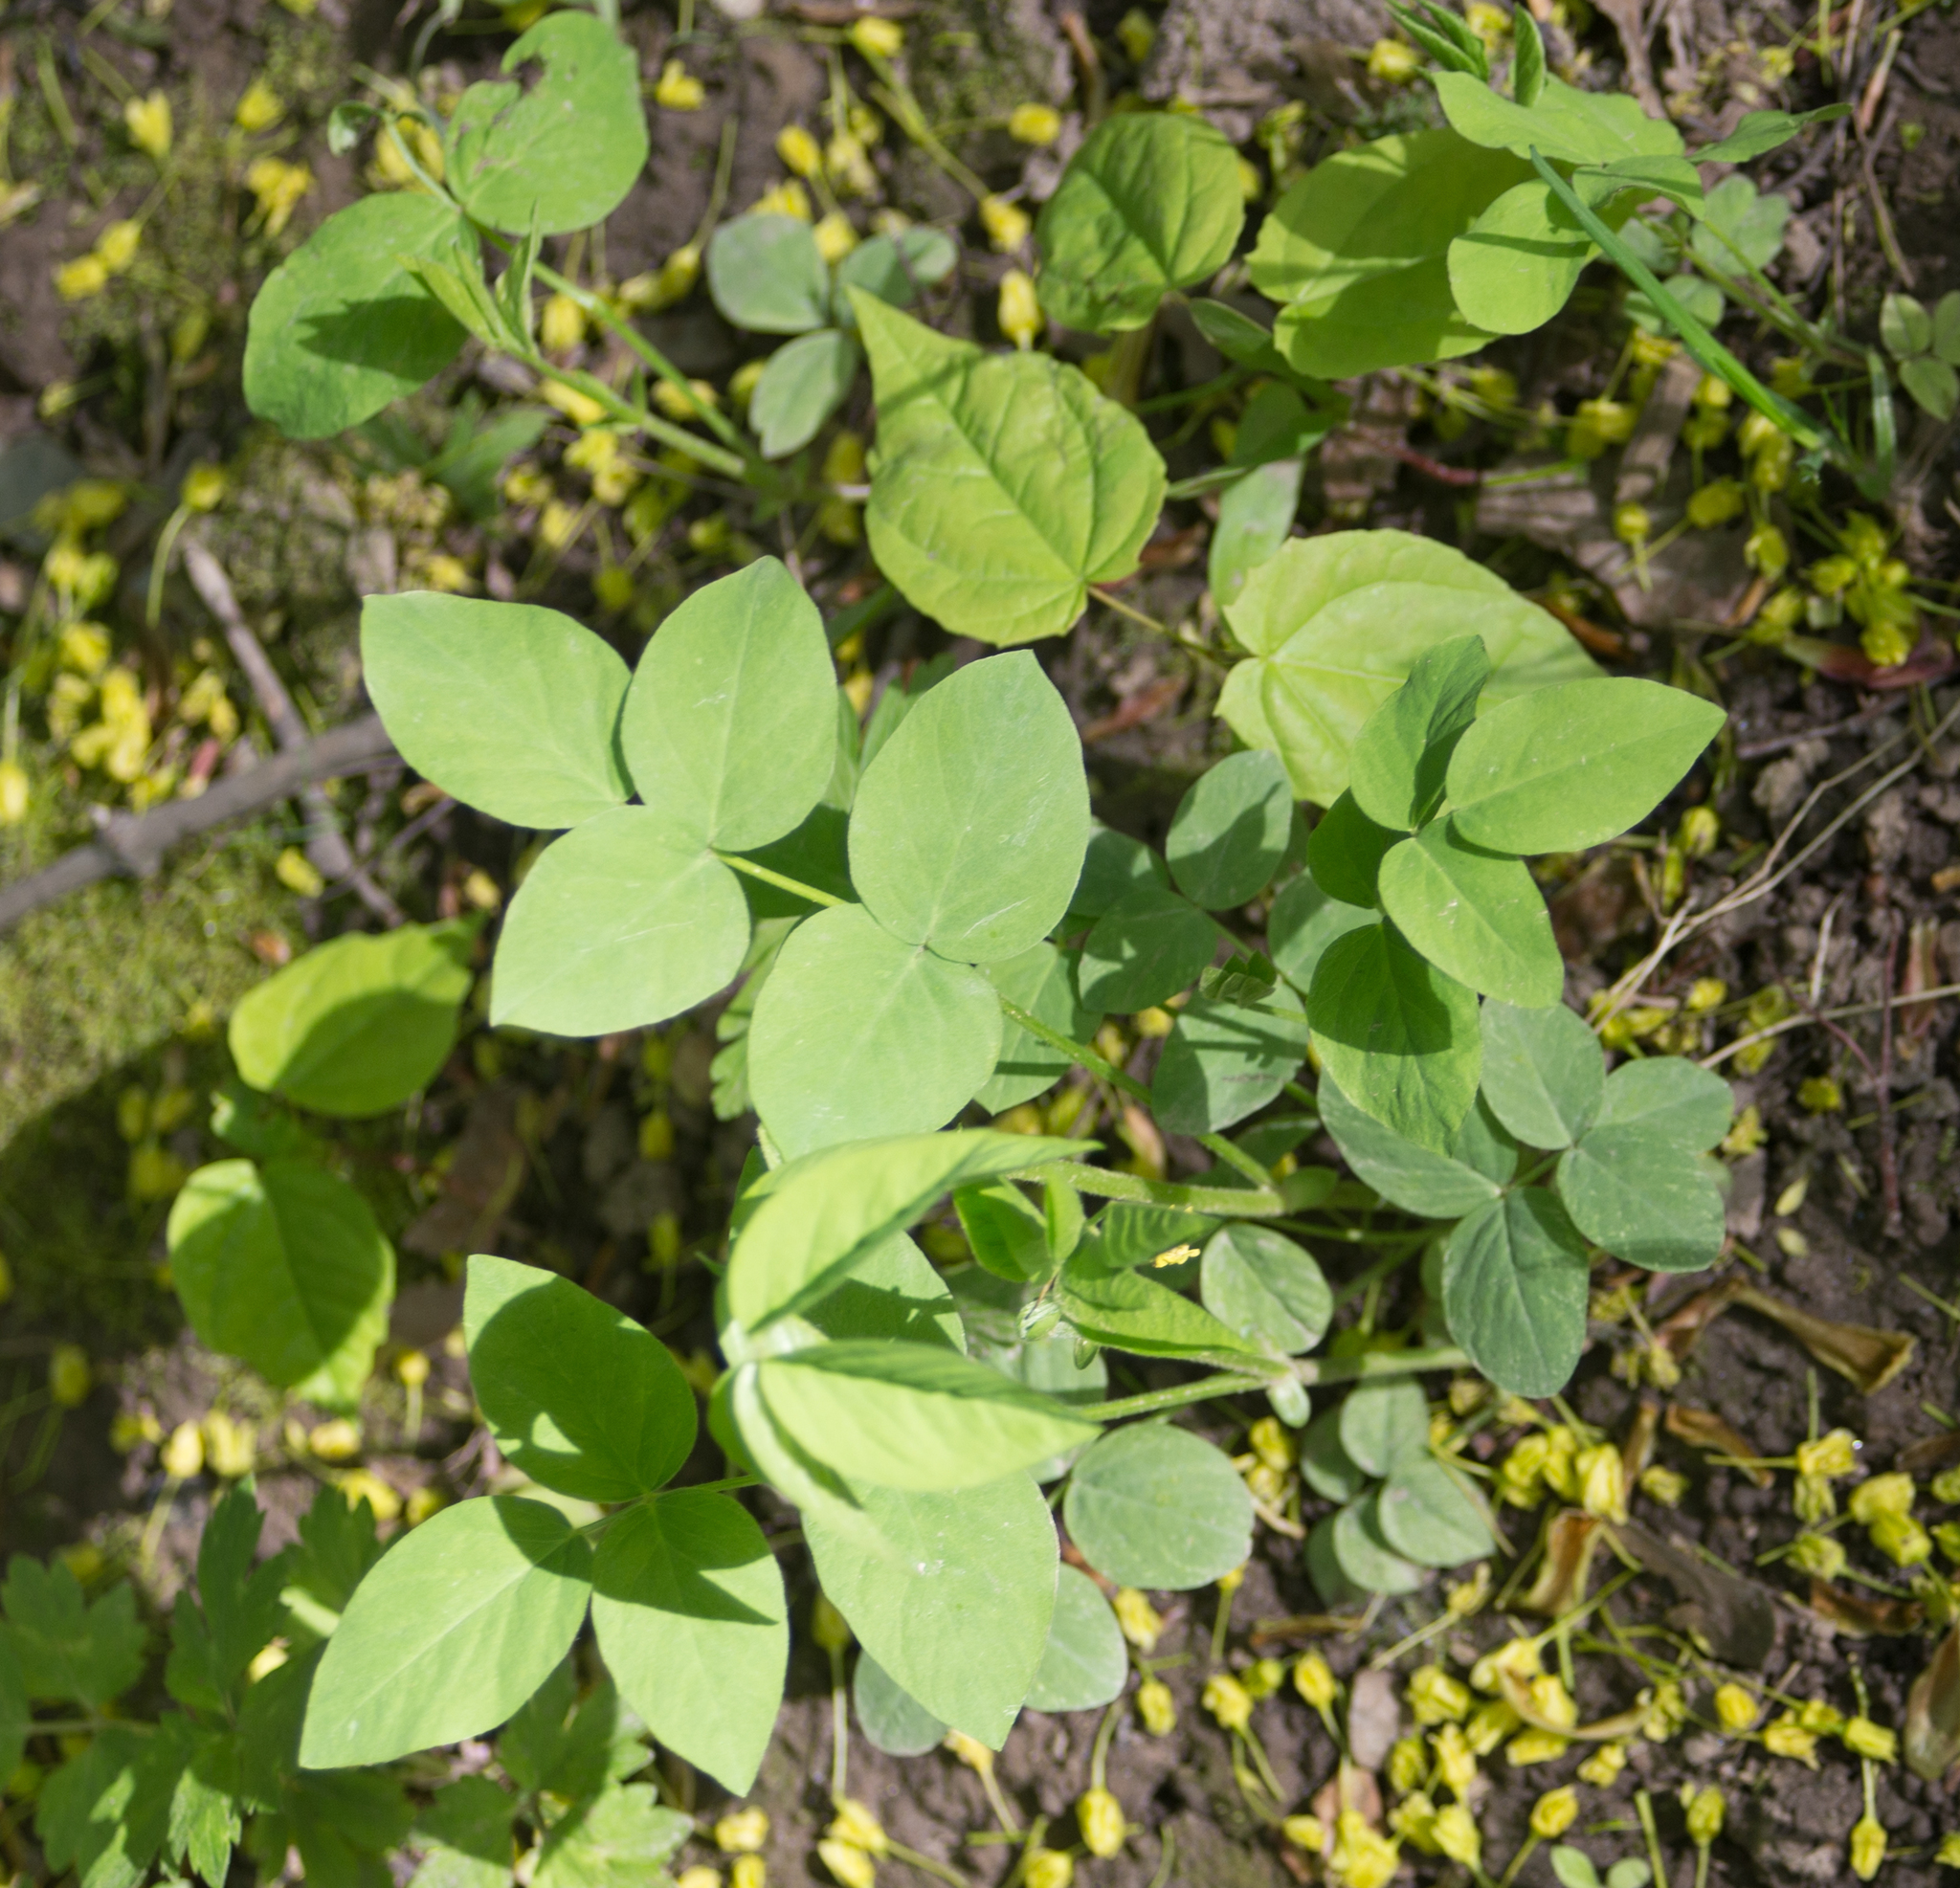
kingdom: Plantae
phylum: Tracheophyta
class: Magnoliopsida
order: Fabales
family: Fabaceae
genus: Galega
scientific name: Galega orientalis
